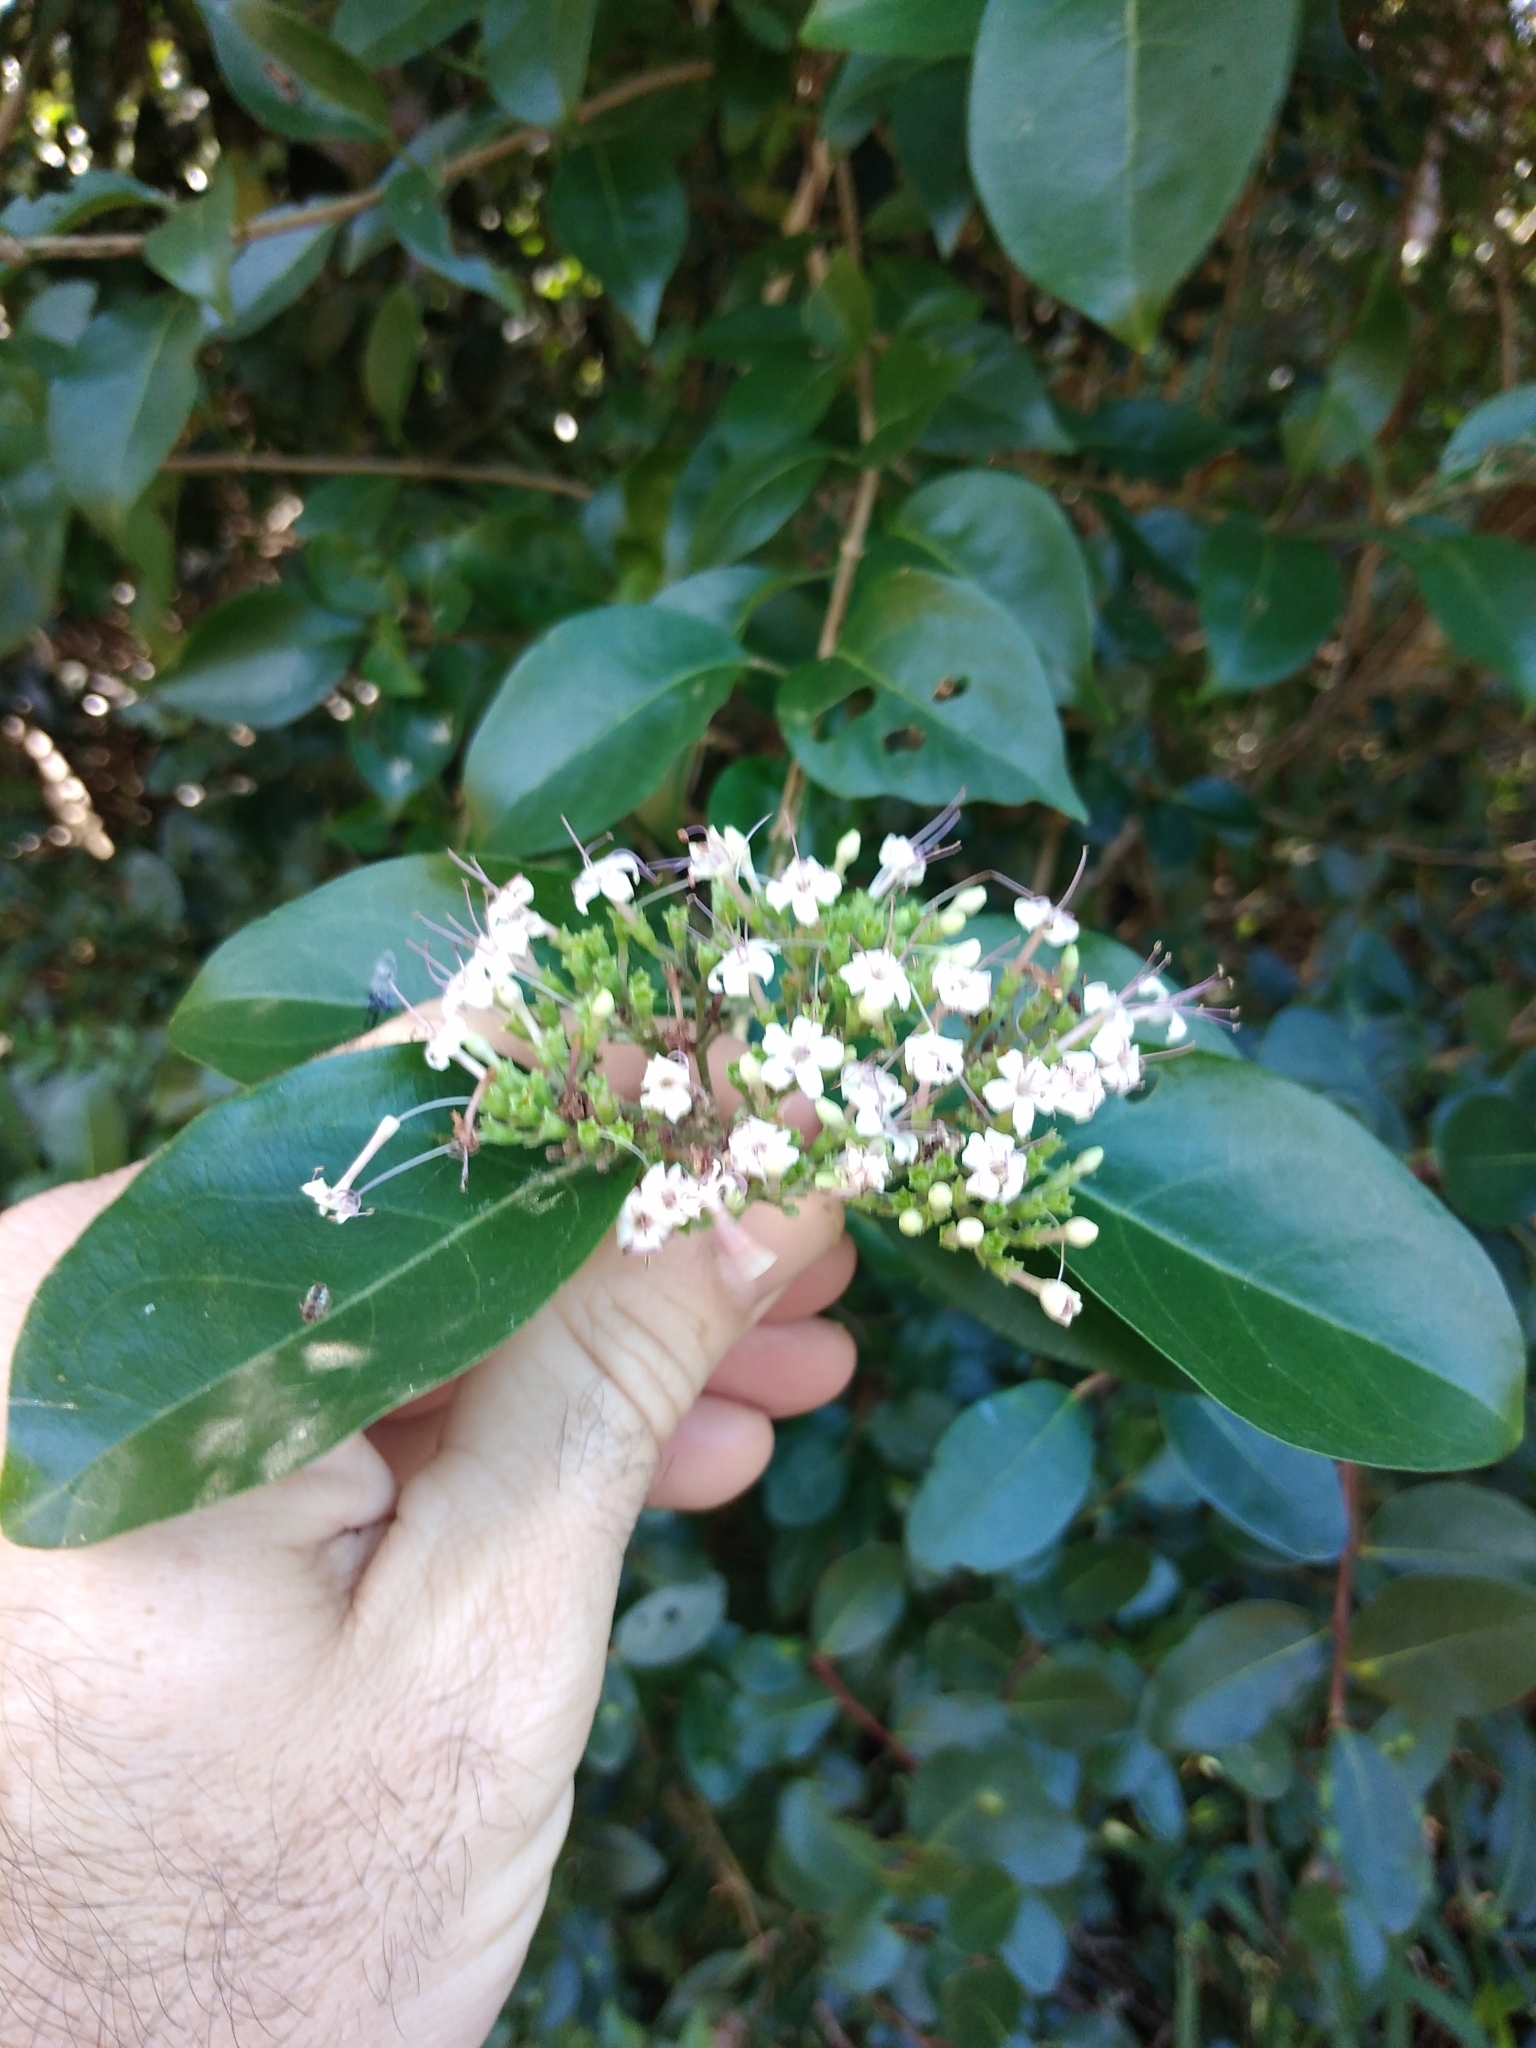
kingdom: Plantae
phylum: Tracheophyta
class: Magnoliopsida
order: Lamiales
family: Lamiaceae
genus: Volkameria
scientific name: Volkameria glabra
